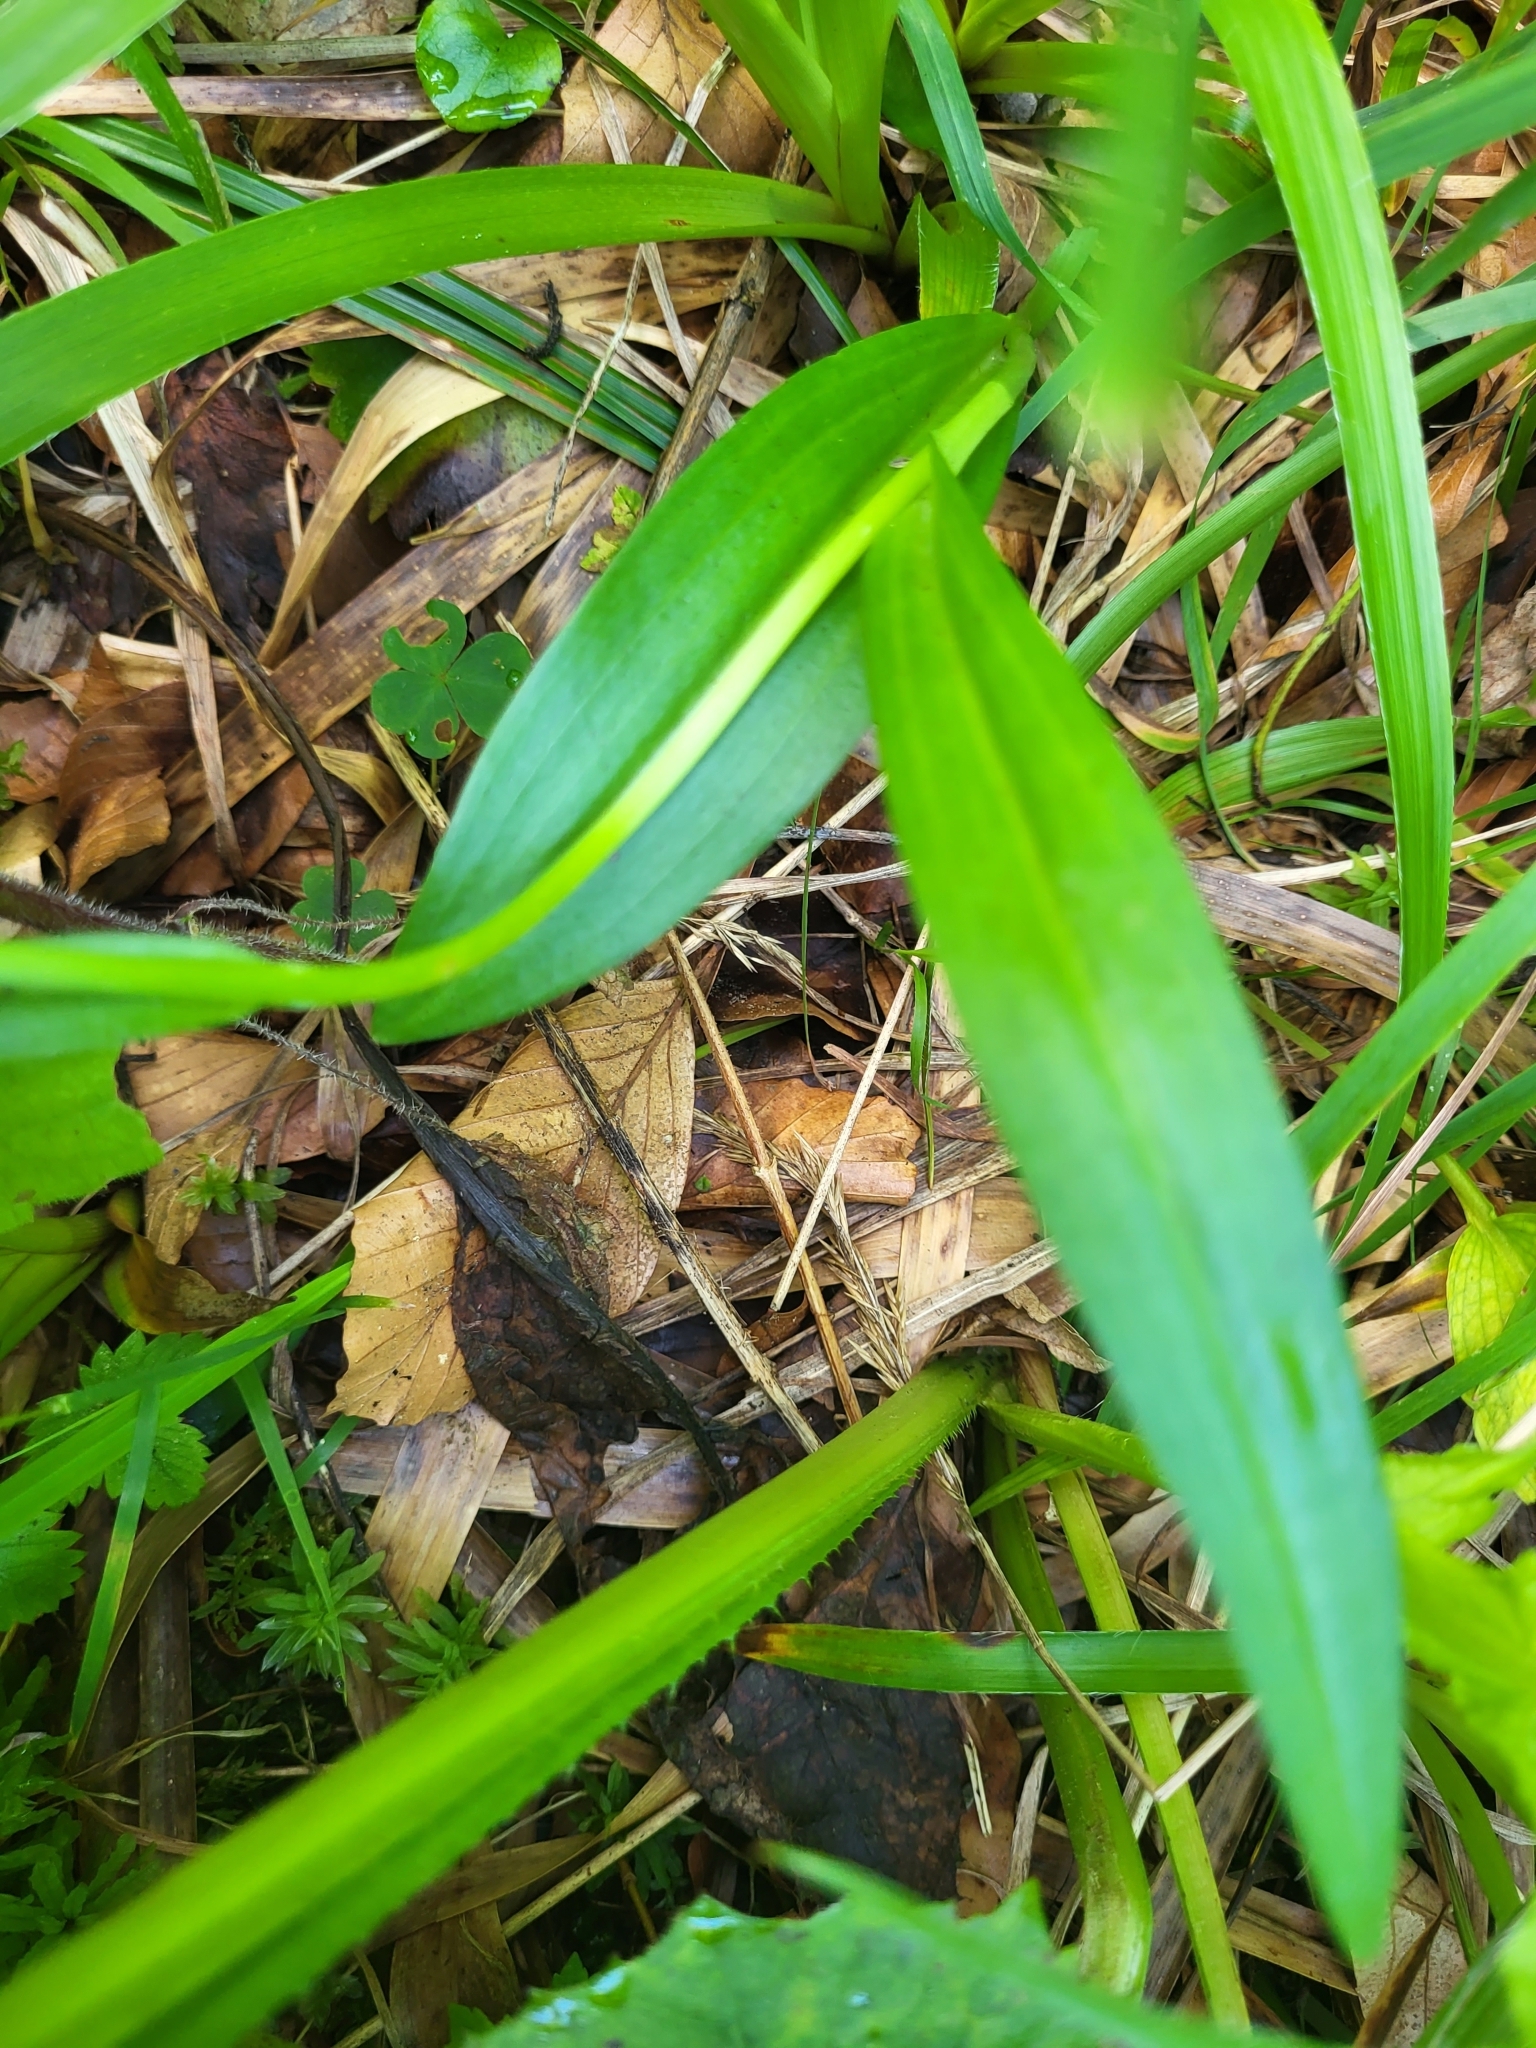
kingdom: Plantae
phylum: Tracheophyta
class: Liliopsida
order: Asparagales
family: Orchidaceae
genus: Dactylorhiza
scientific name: Dactylorhiza maculata
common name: Heath spotted-orchid
